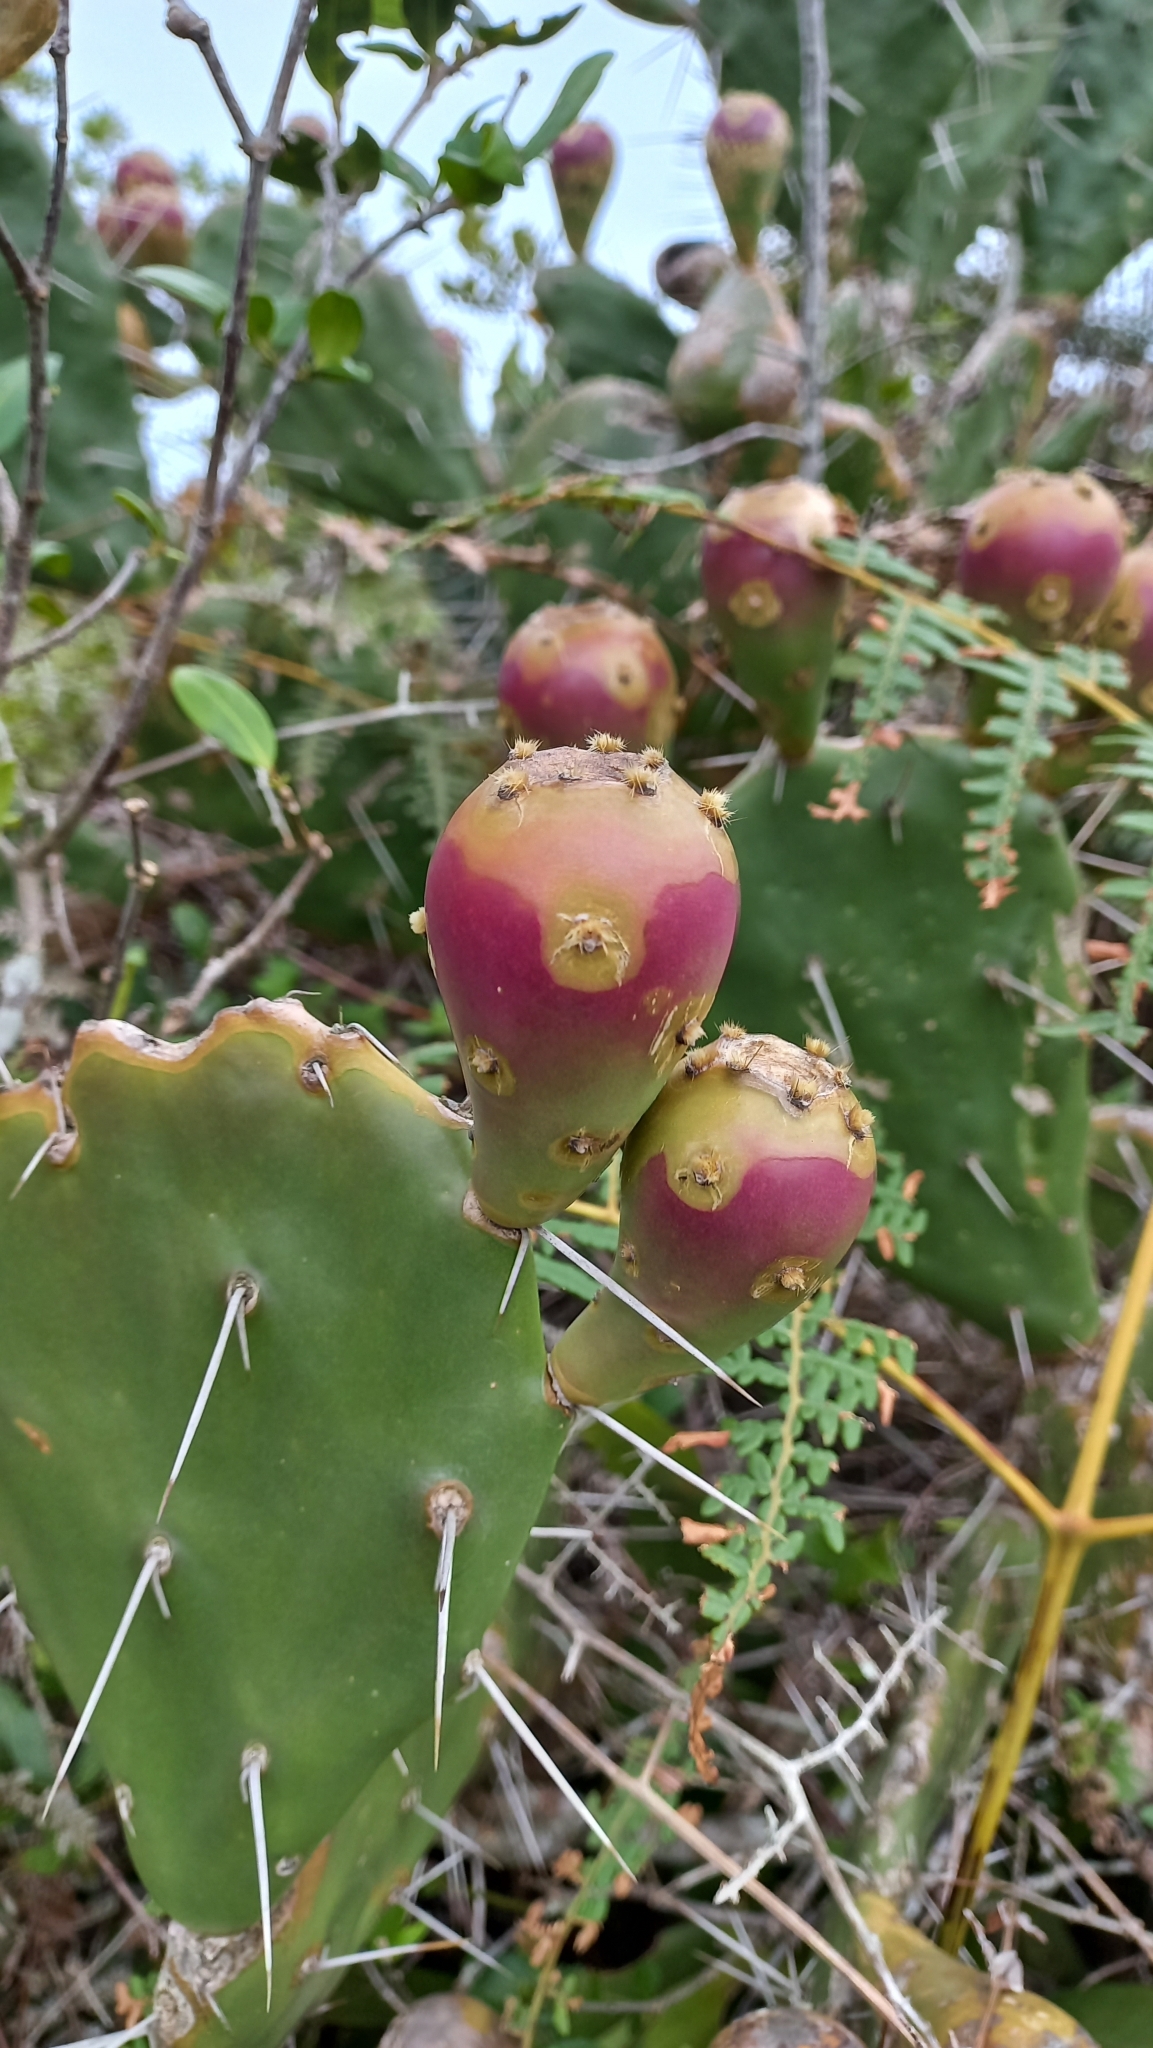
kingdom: Plantae
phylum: Tracheophyta
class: Magnoliopsida
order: Caryophyllales
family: Cactaceae
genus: Opuntia
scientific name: Opuntia monacantha
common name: Common pricklypear
